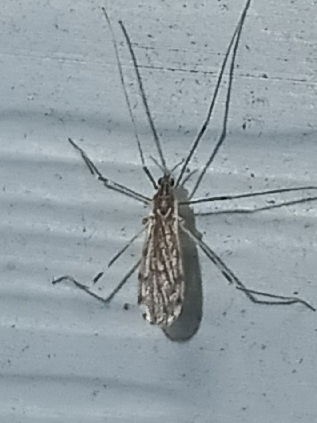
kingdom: Animalia
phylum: Arthropoda
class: Insecta
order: Diptera
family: Limoniidae
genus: Erioptera
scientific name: Erioptera parva
